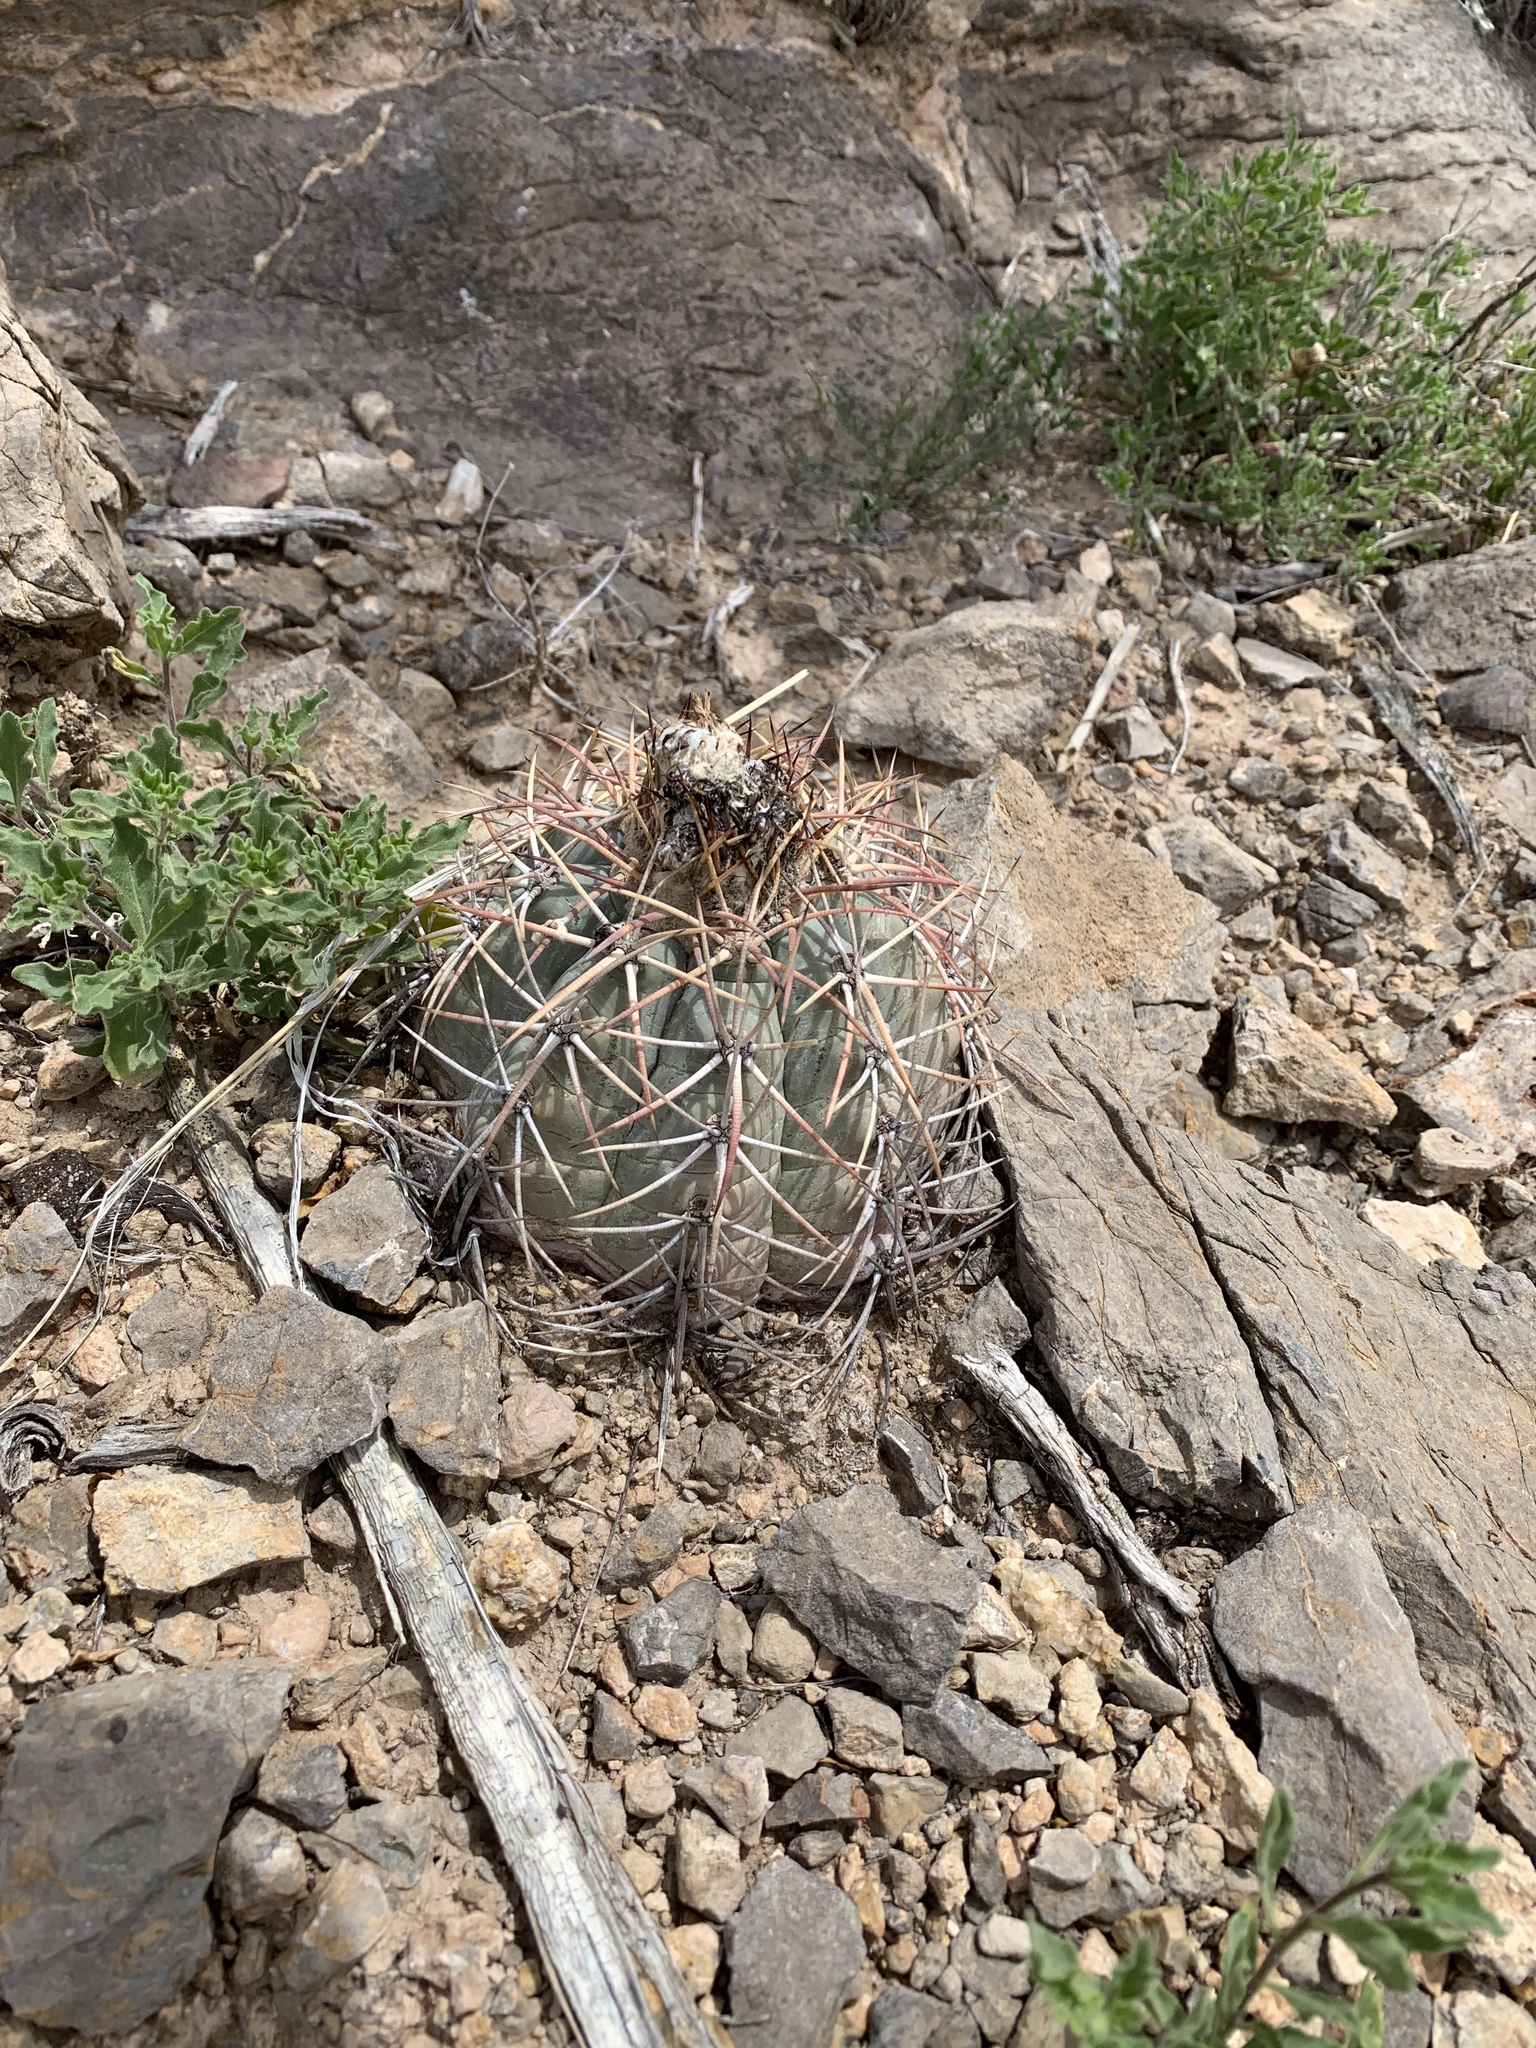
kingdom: Plantae
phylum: Tracheophyta
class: Magnoliopsida
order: Caryophyllales
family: Cactaceae
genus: Echinocactus
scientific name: Echinocactus horizonthalonius
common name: Devilshead
